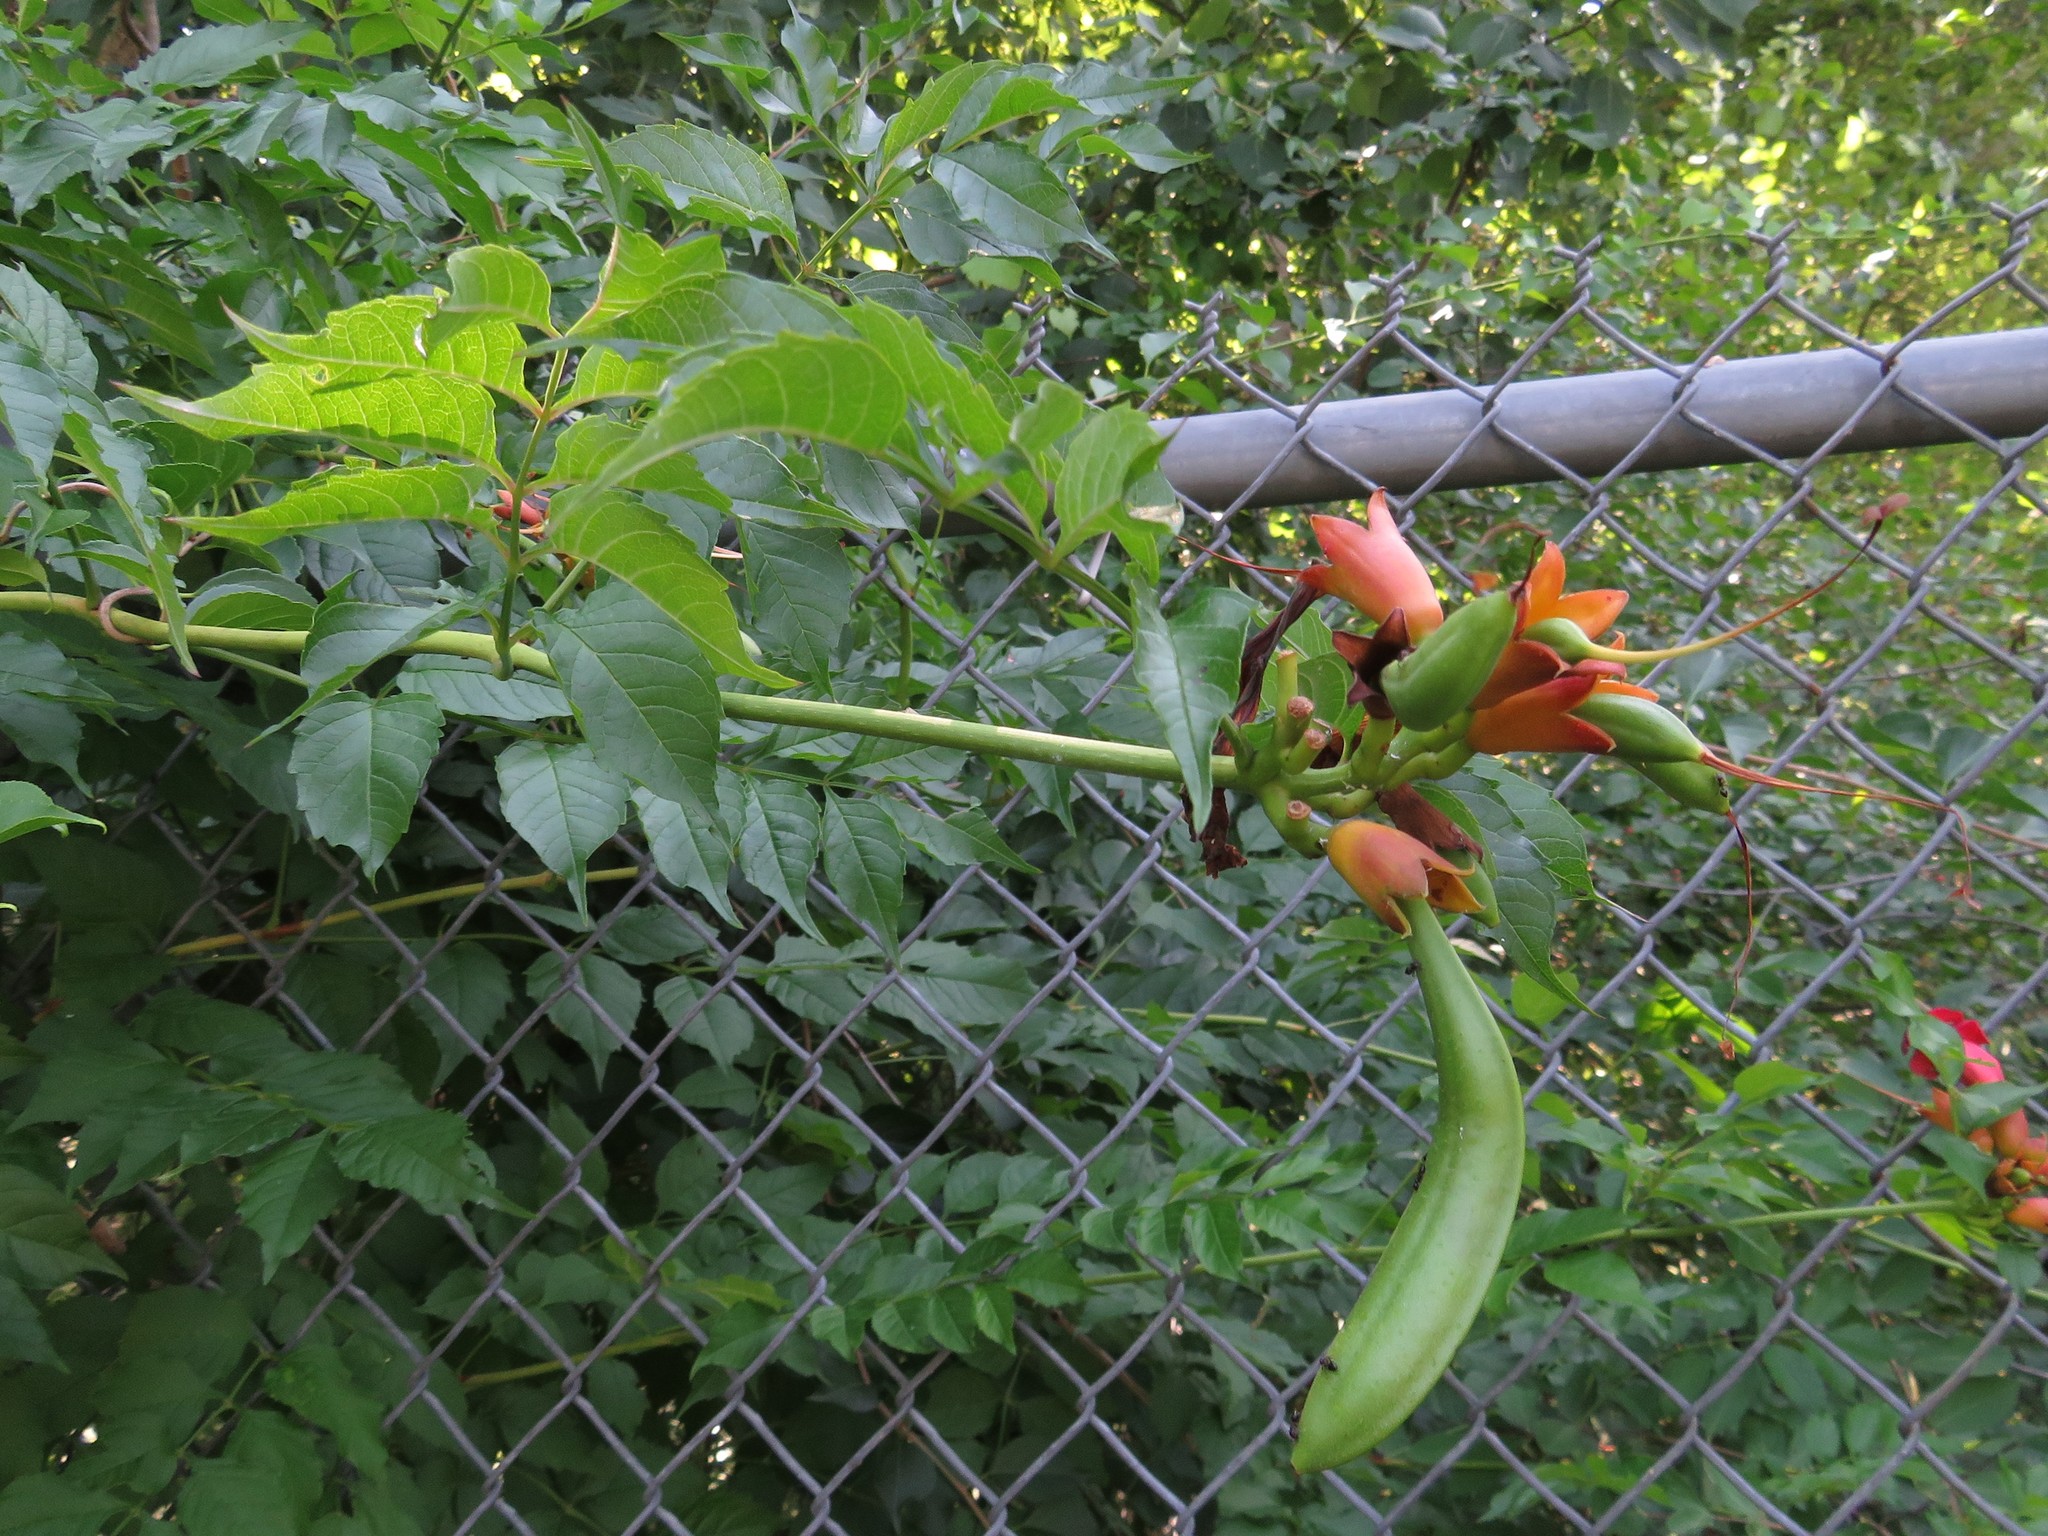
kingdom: Plantae
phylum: Tracheophyta
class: Magnoliopsida
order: Lamiales
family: Bignoniaceae
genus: Campsis
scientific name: Campsis radicans
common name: Trumpet-creeper
